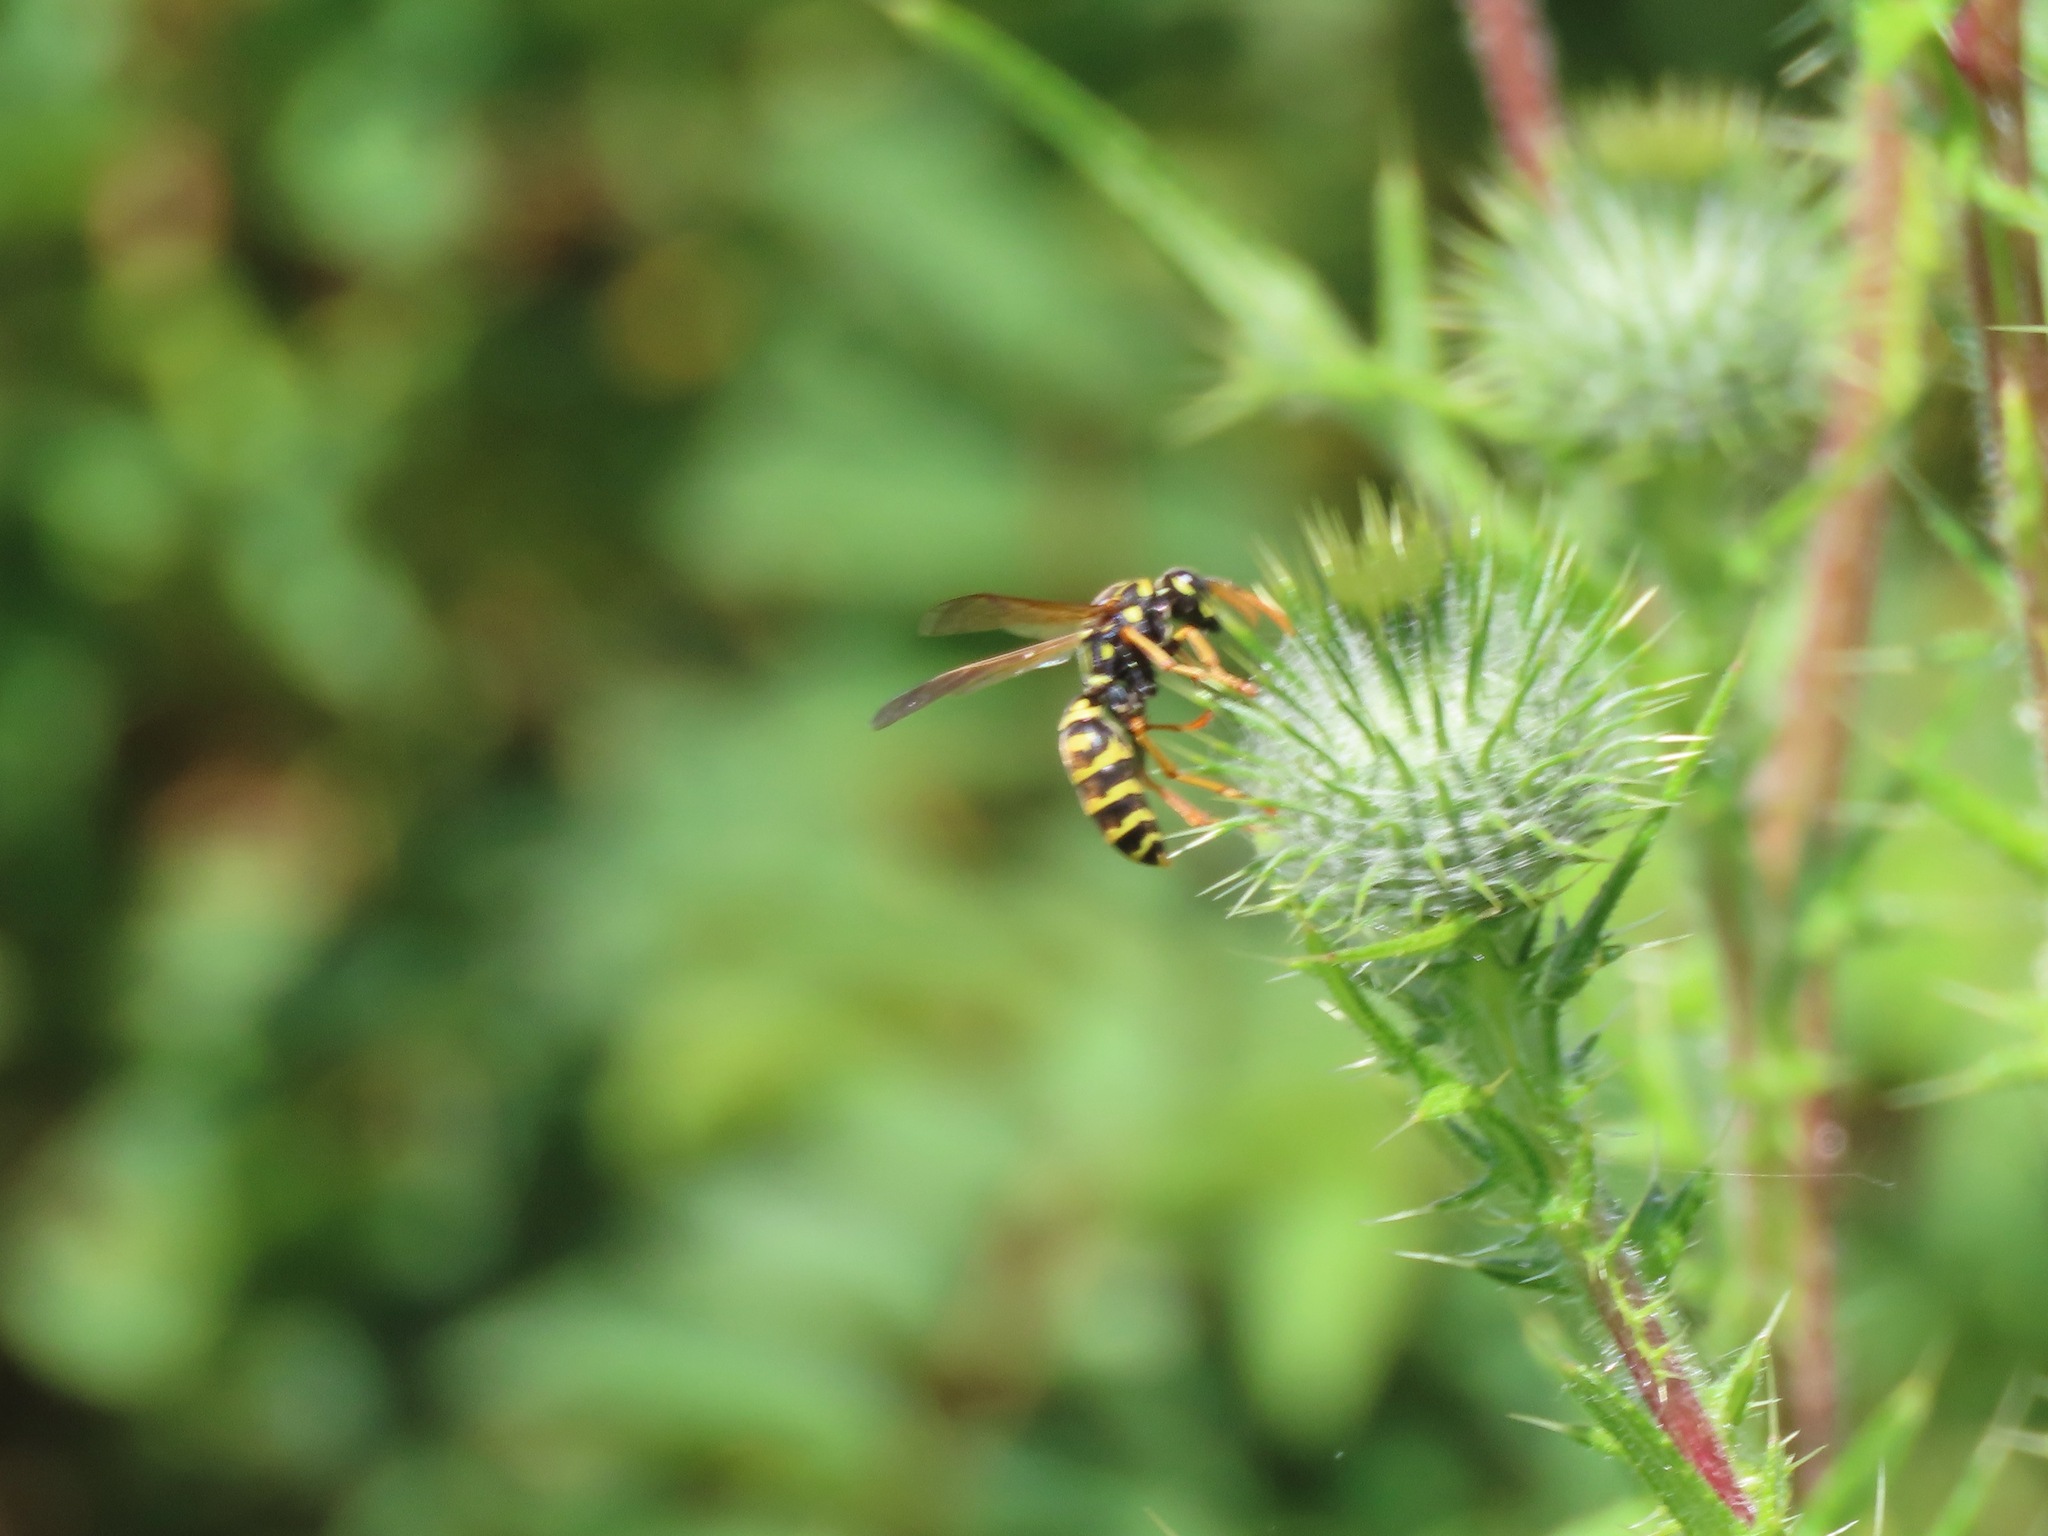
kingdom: Animalia
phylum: Arthropoda
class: Insecta
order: Hymenoptera
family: Eumenidae
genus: Polistes
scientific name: Polistes dominula
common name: Paper wasp
